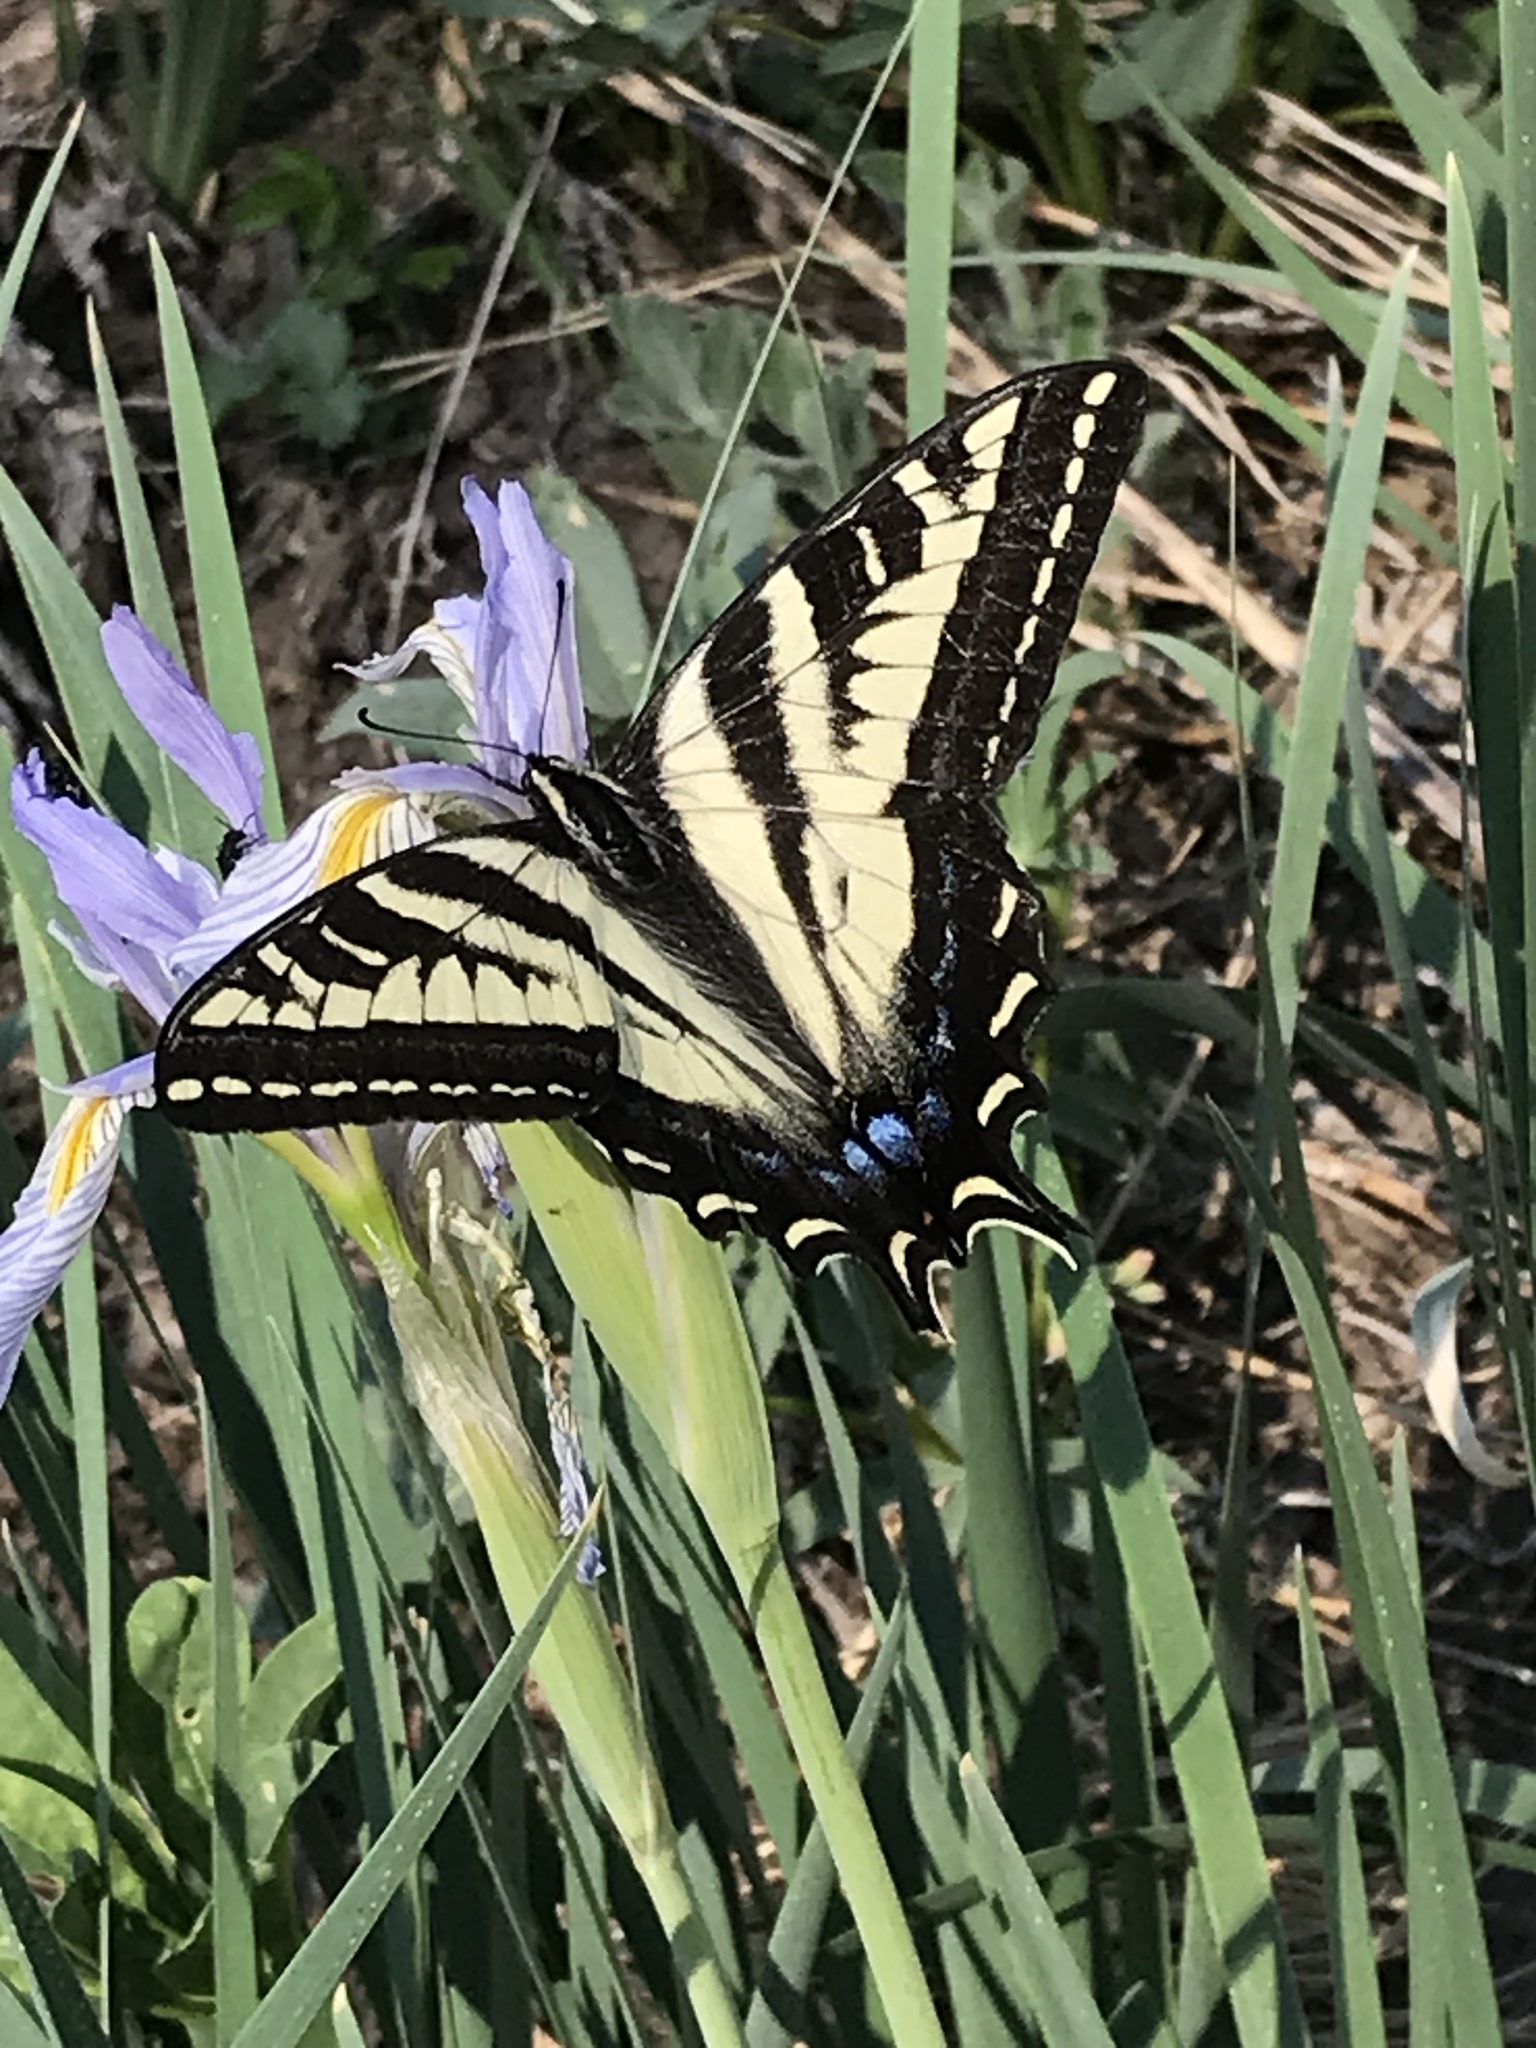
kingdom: Animalia
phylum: Arthropoda
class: Insecta
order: Lepidoptera
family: Papilionidae
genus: Papilio
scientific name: Papilio eurymedon
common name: Pale tiger swallowtail
